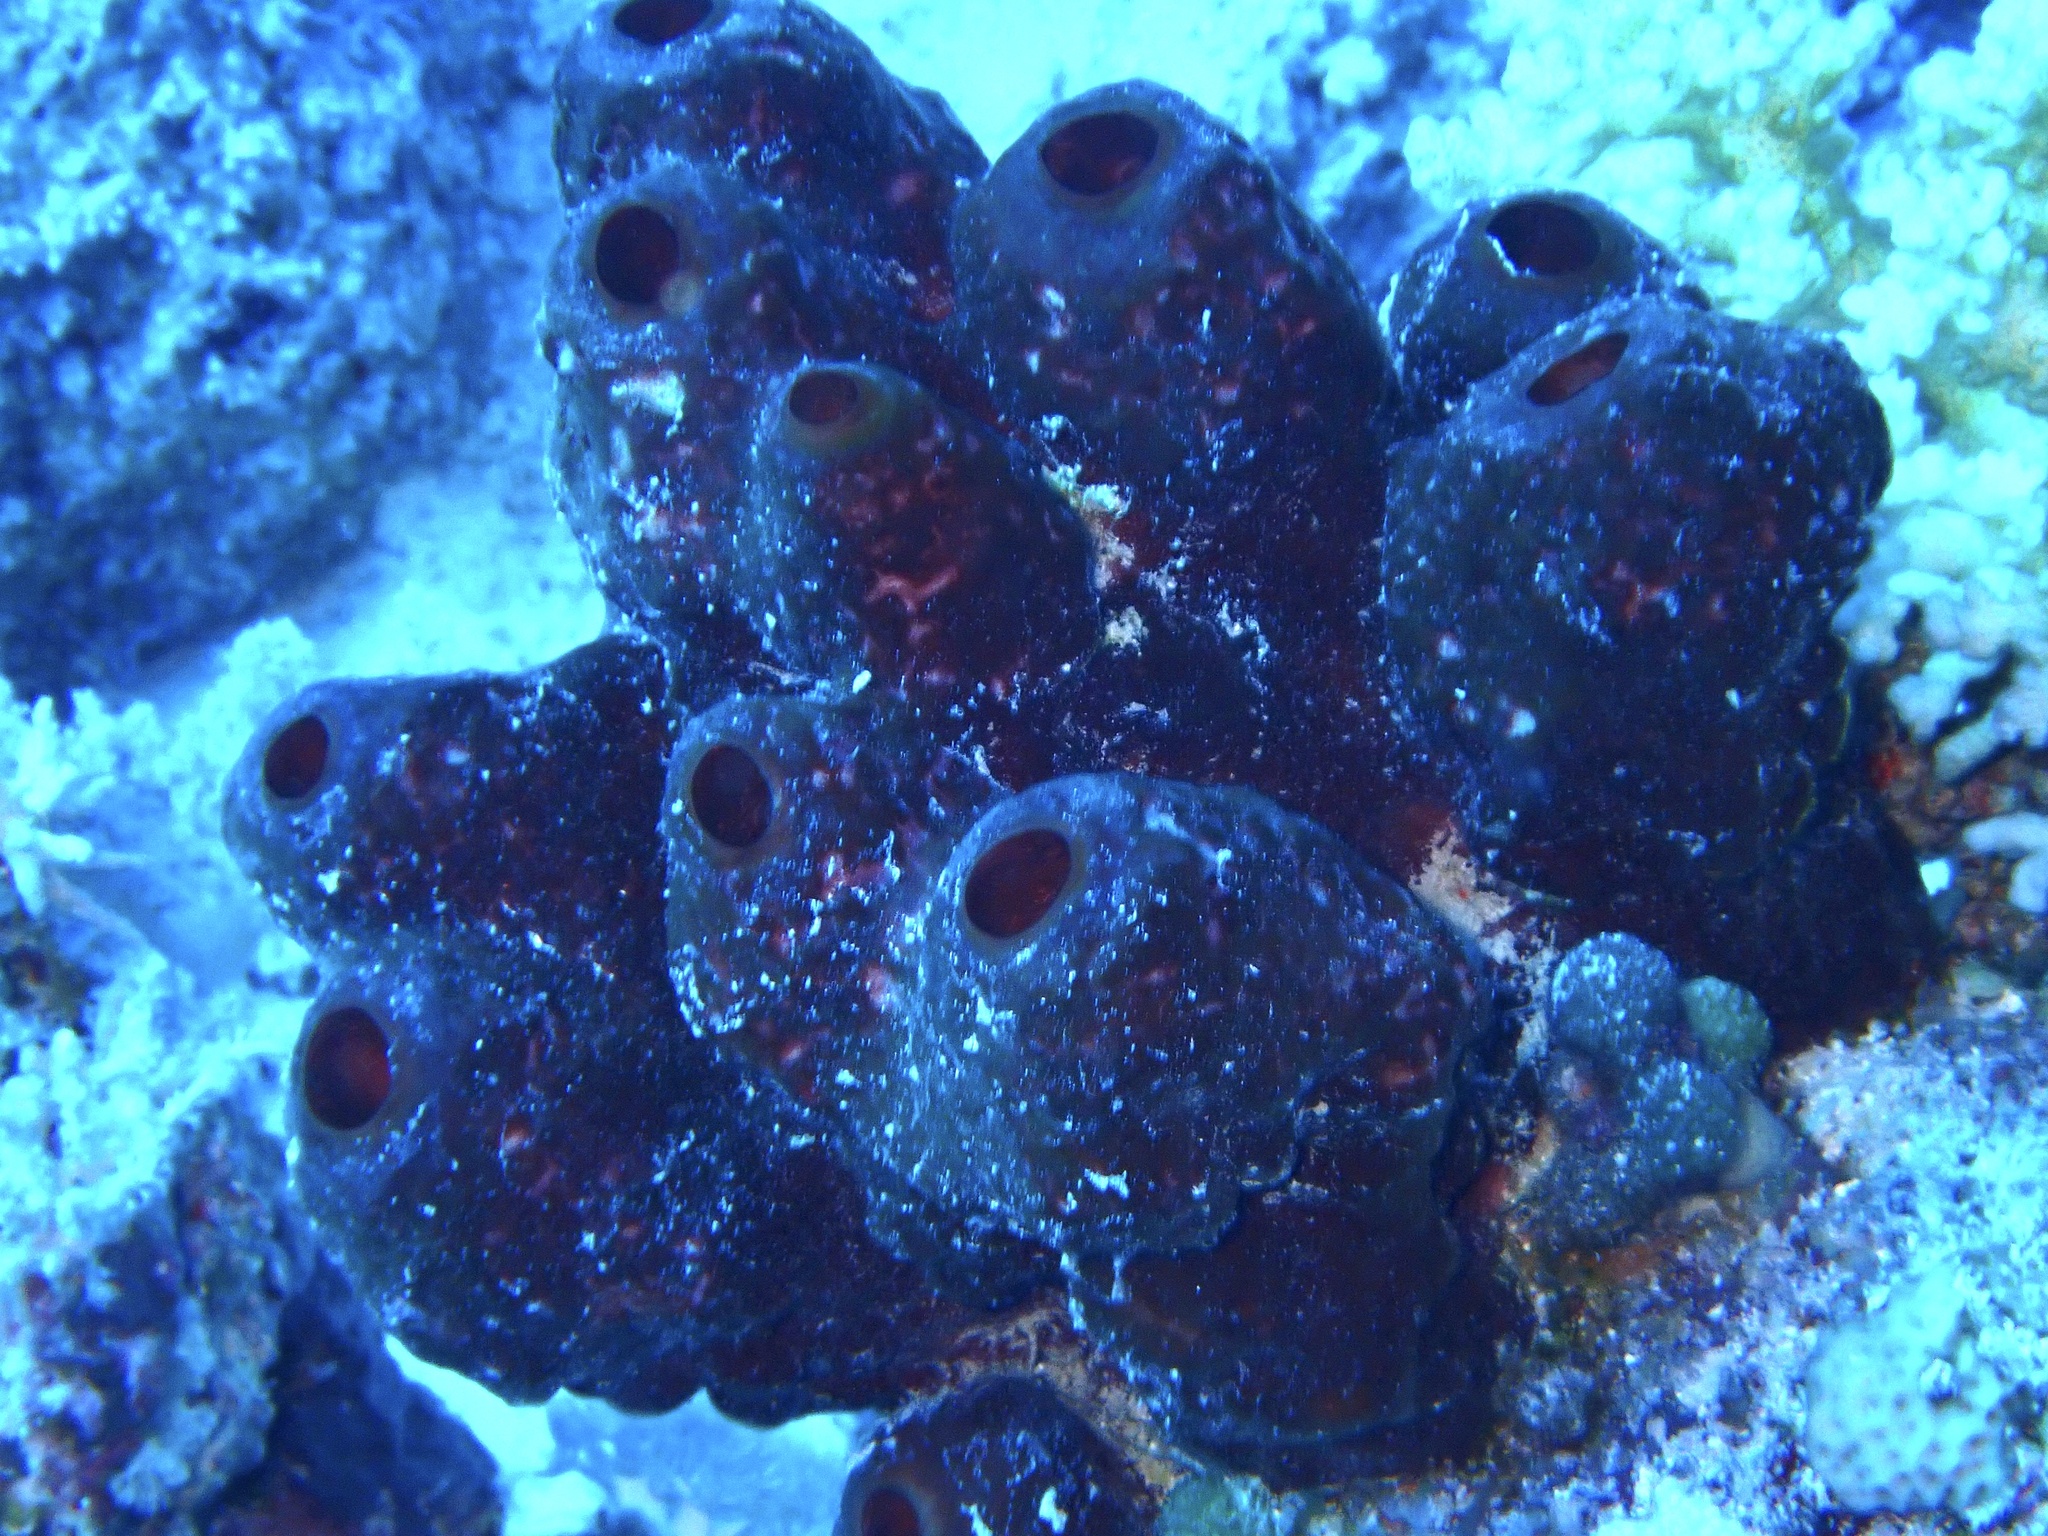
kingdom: Animalia
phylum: Porifera
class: Demospongiae
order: Tetractinellida
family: Theonellidae
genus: Theonella
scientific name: Theonella swinhoei
